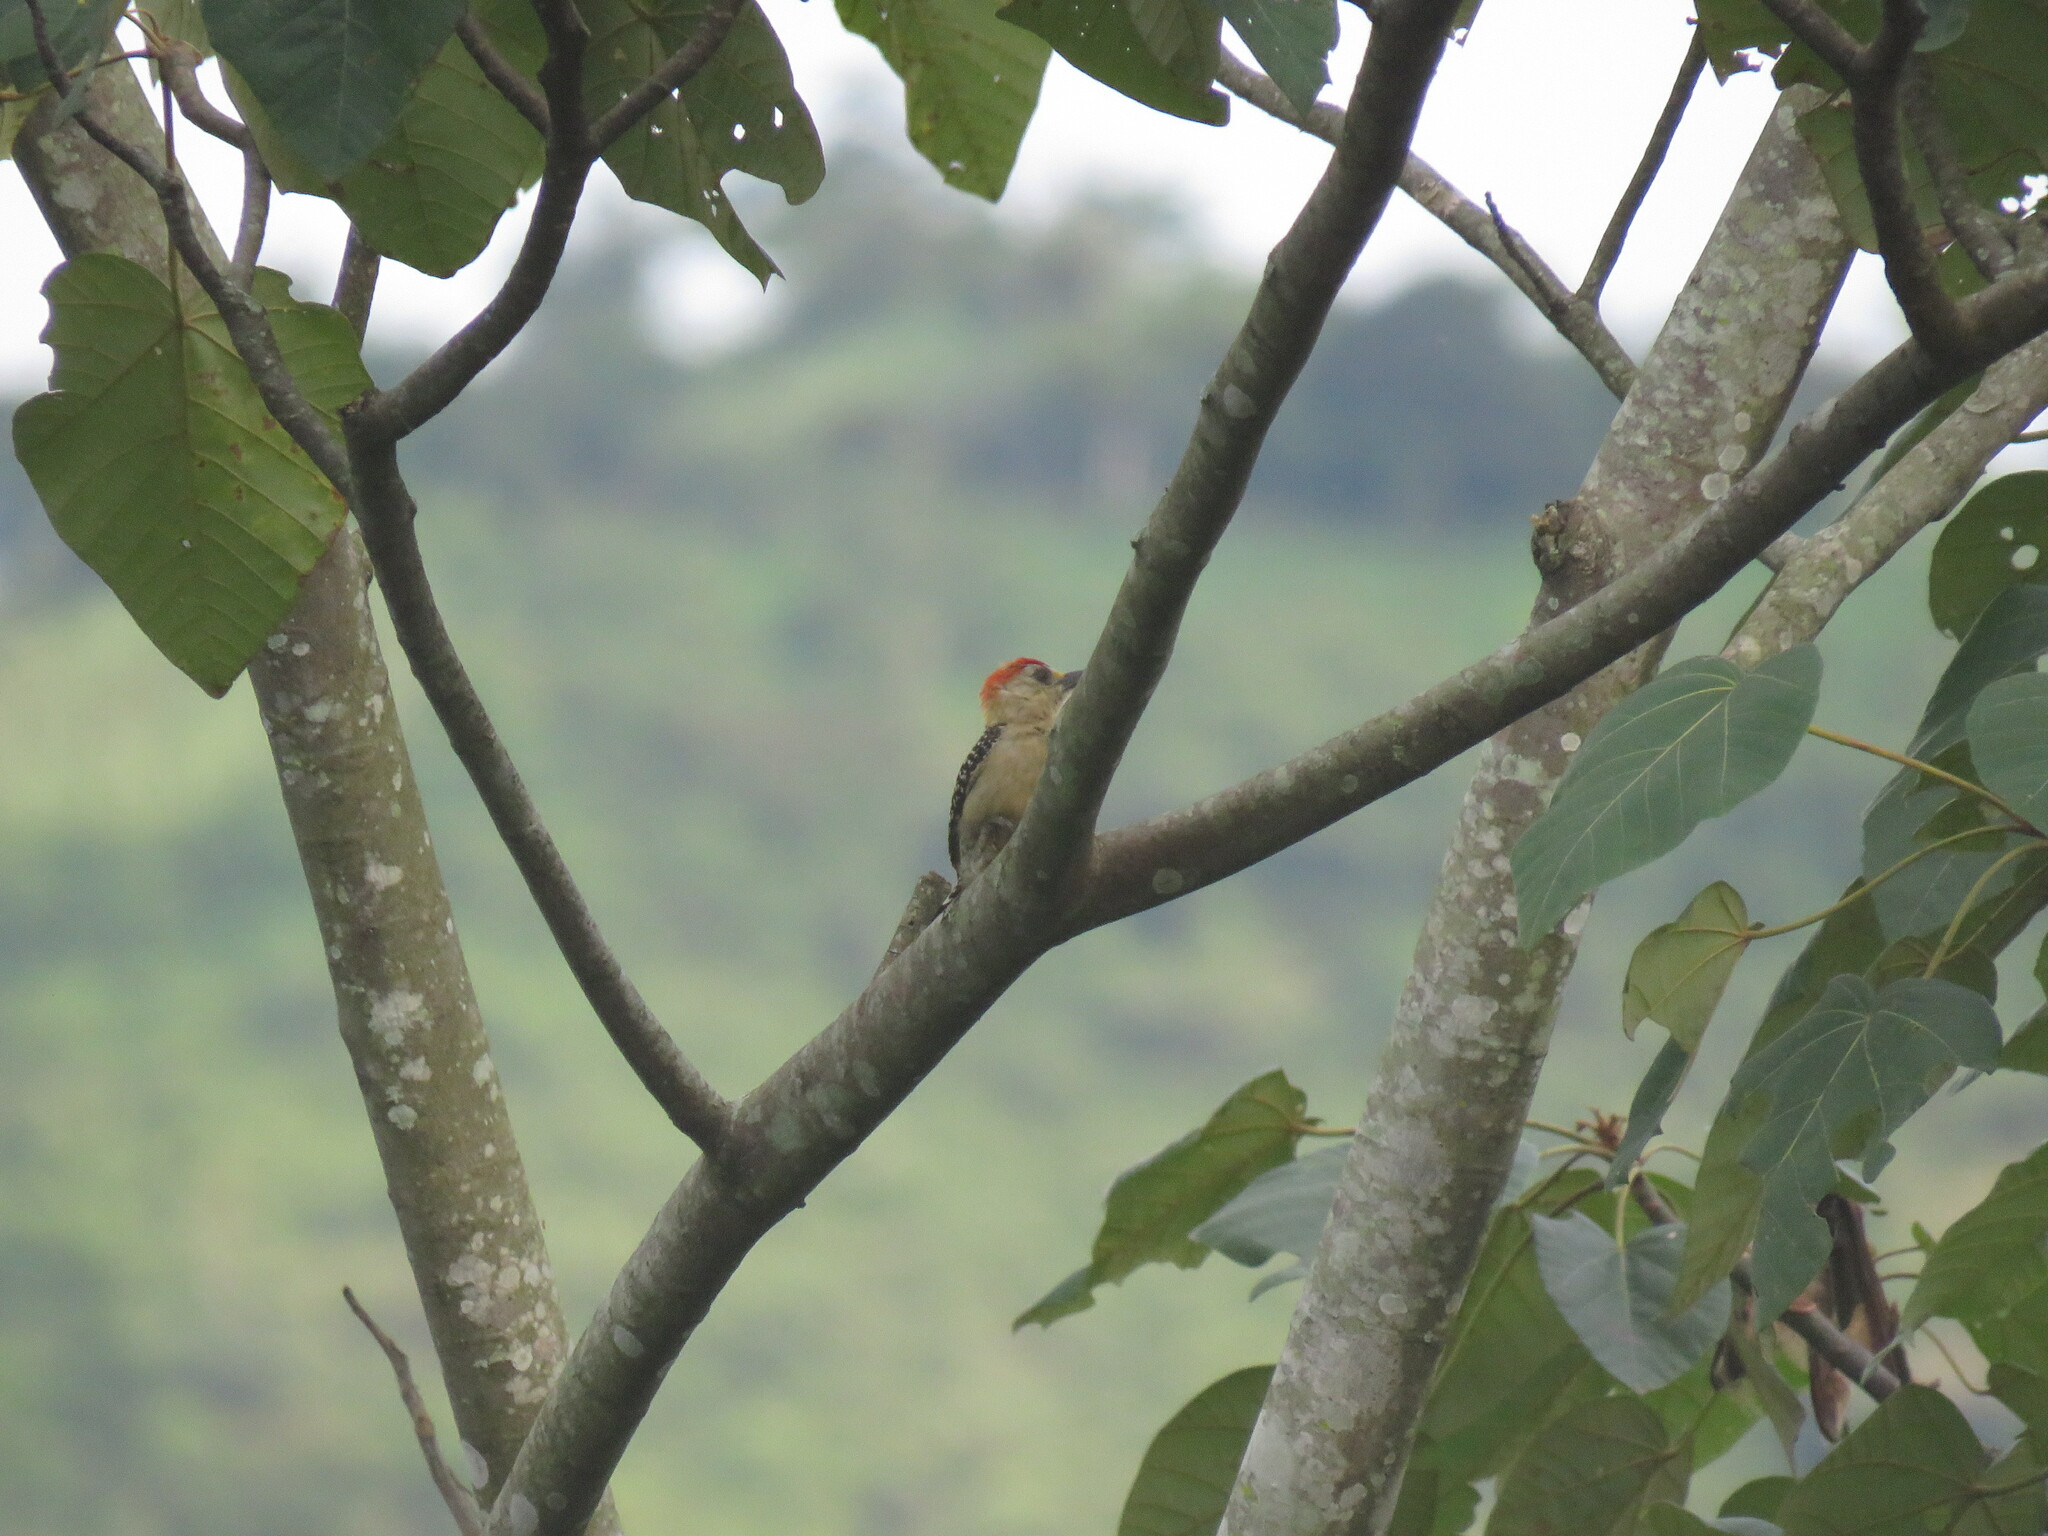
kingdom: Animalia
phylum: Chordata
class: Aves
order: Piciformes
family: Picidae
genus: Melanerpes
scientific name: Melanerpes rubricapillus
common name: Red-crowned woodpecker
